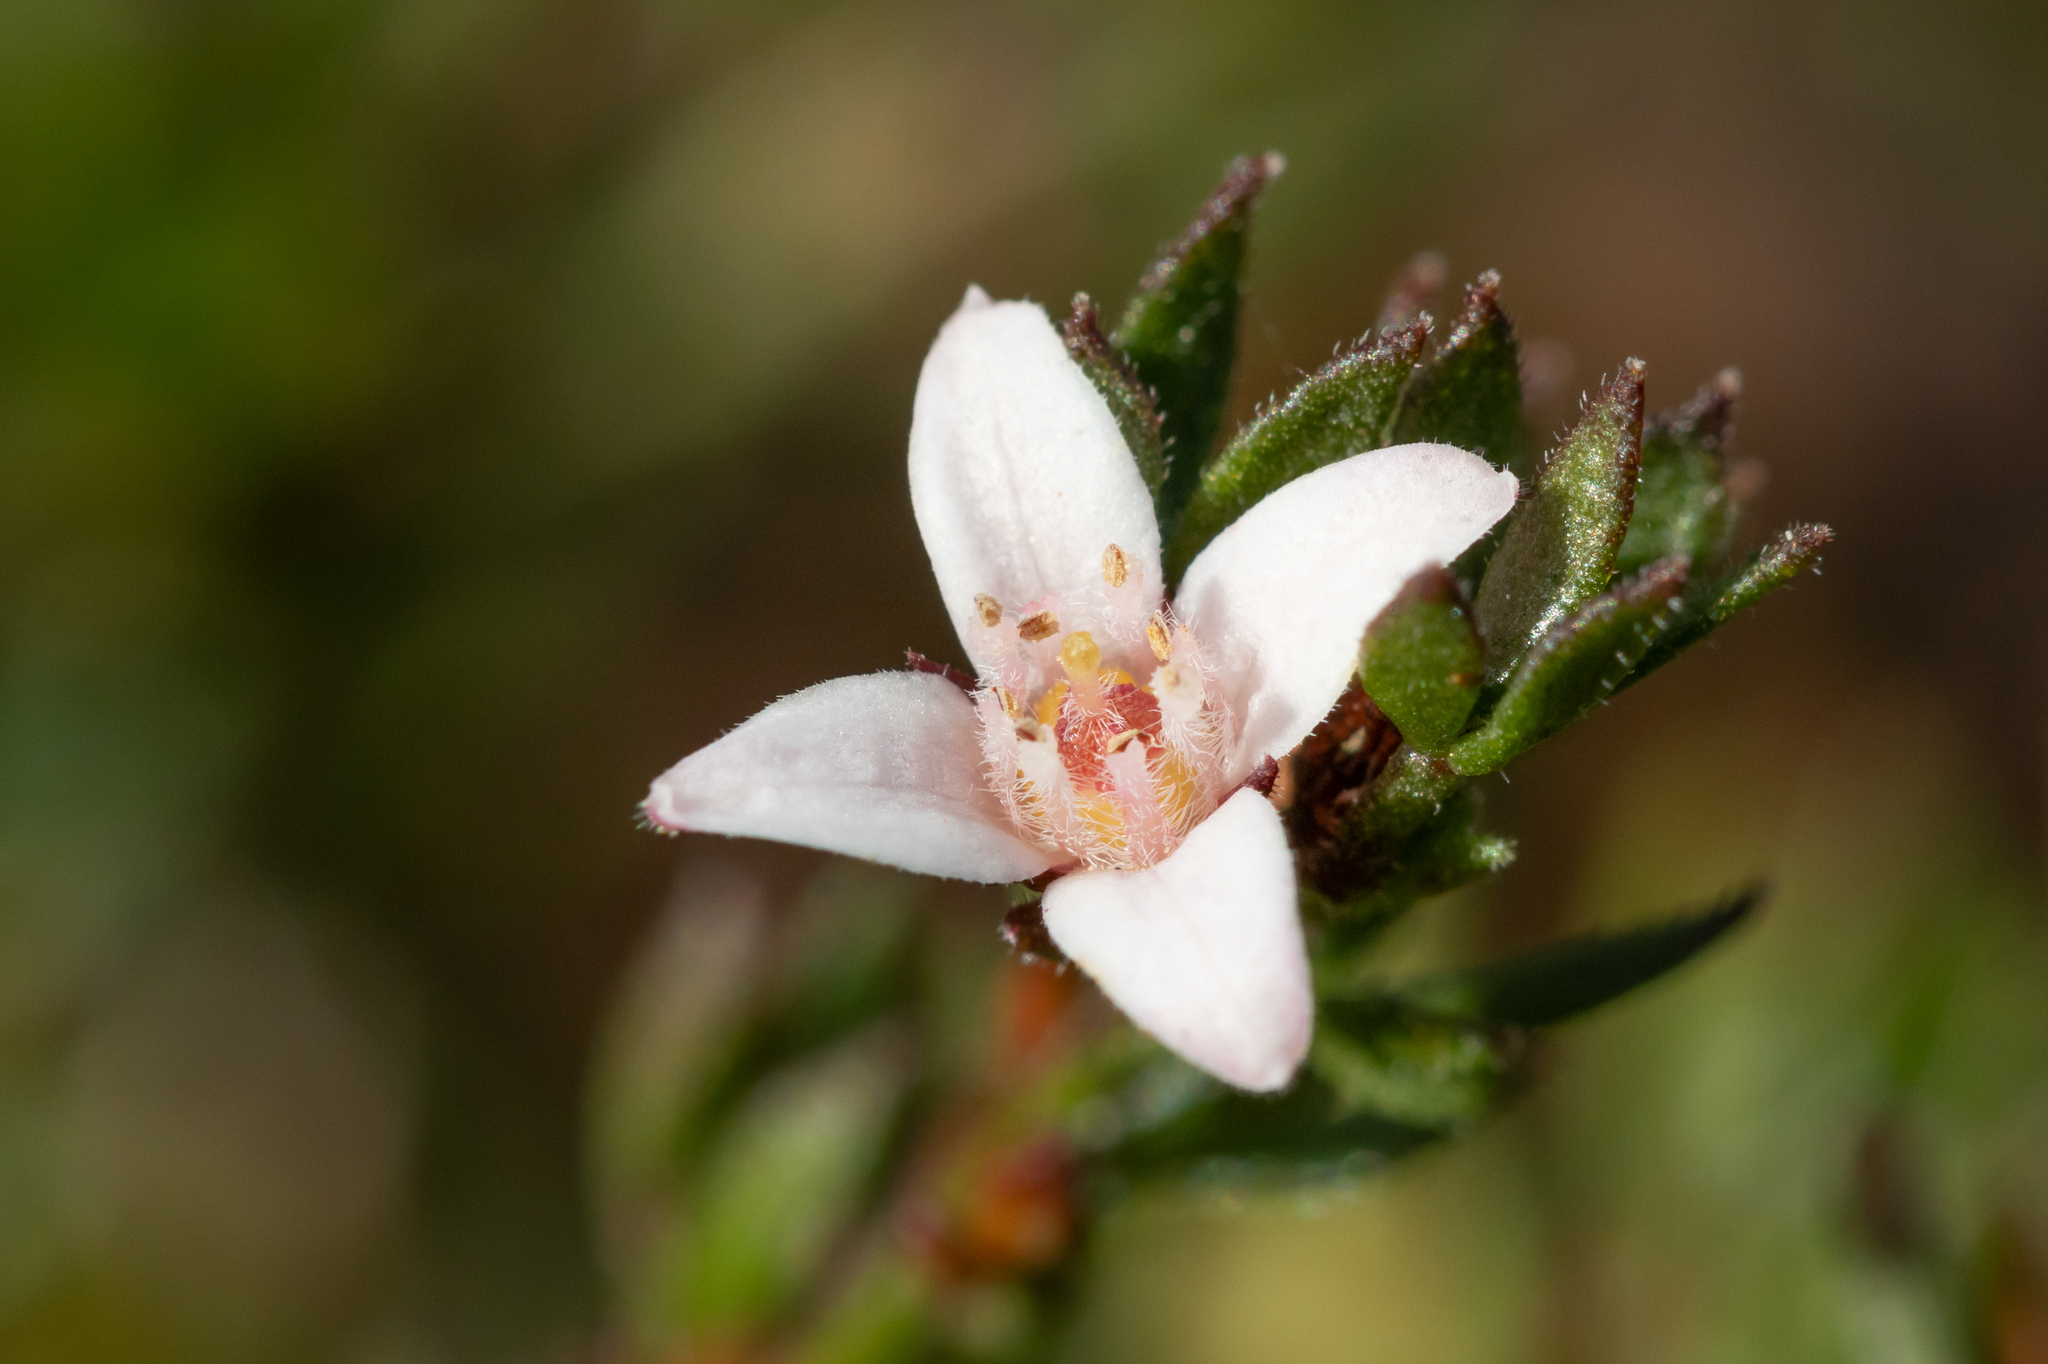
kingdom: Plantae
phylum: Tracheophyta
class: Magnoliopsida
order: Sapindales
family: Rutaceae
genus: Cyanothamnus
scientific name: Cyanothamnus nanus
